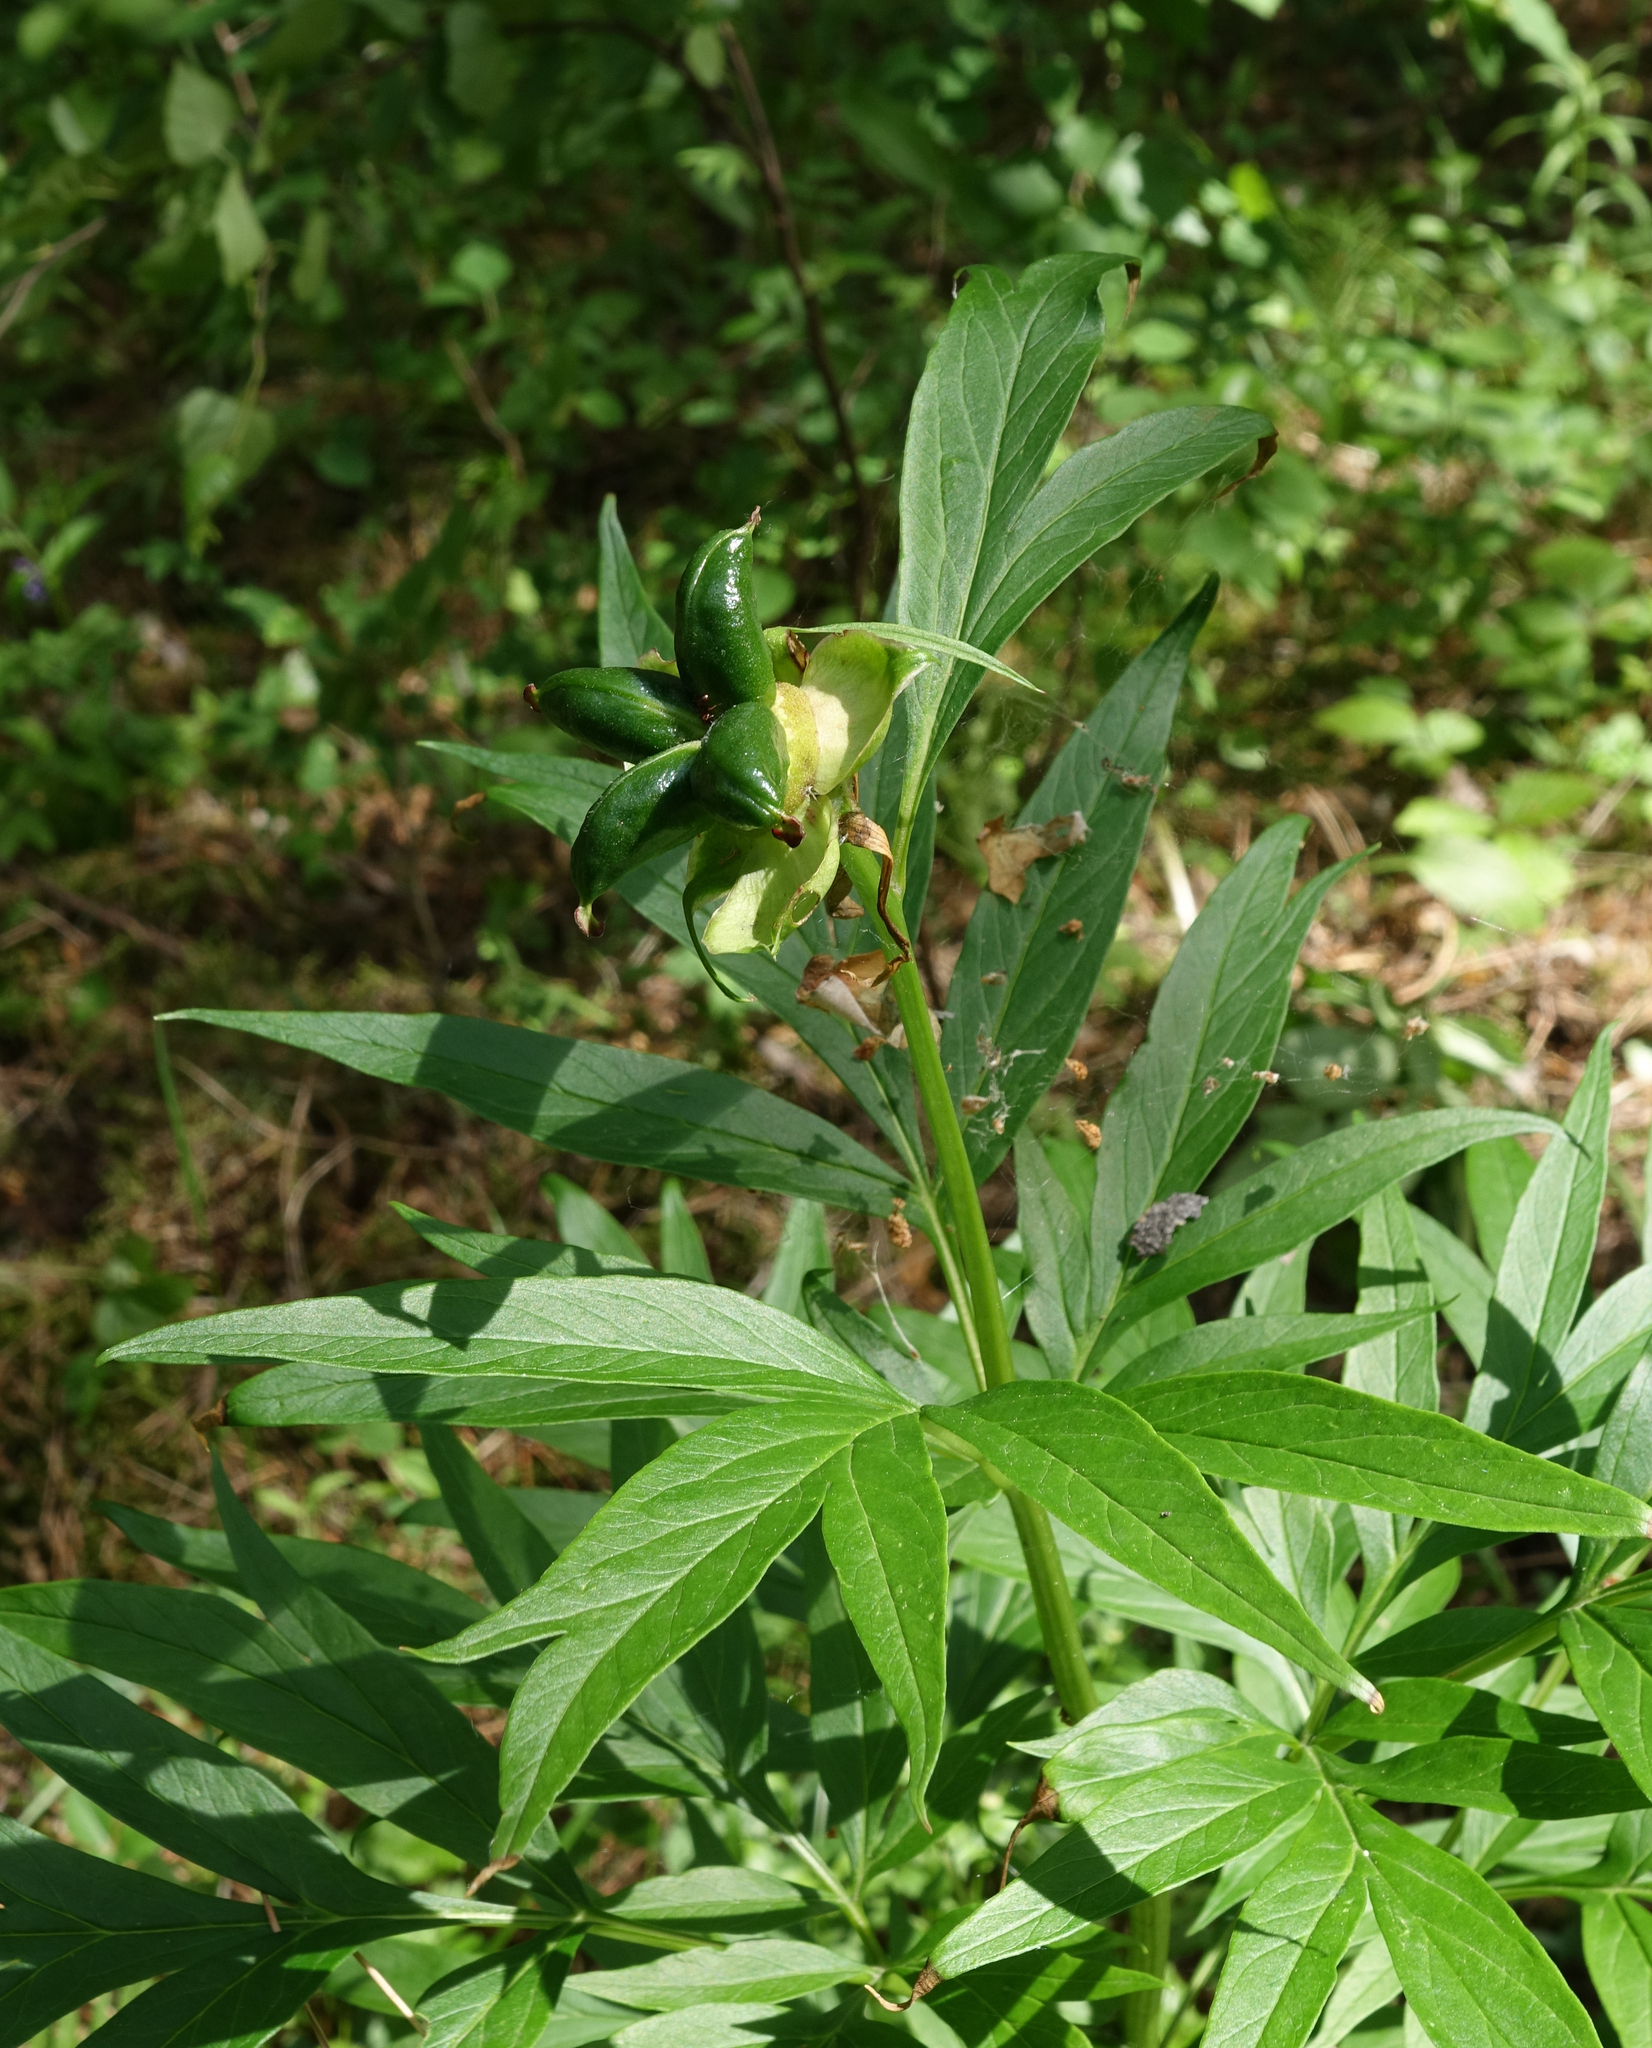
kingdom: Plantae
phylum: Tracheophyta
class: Magnoliopsida
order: Saxifragales
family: Paeoniaceae
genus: Paeonia
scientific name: Paeonia anomala
